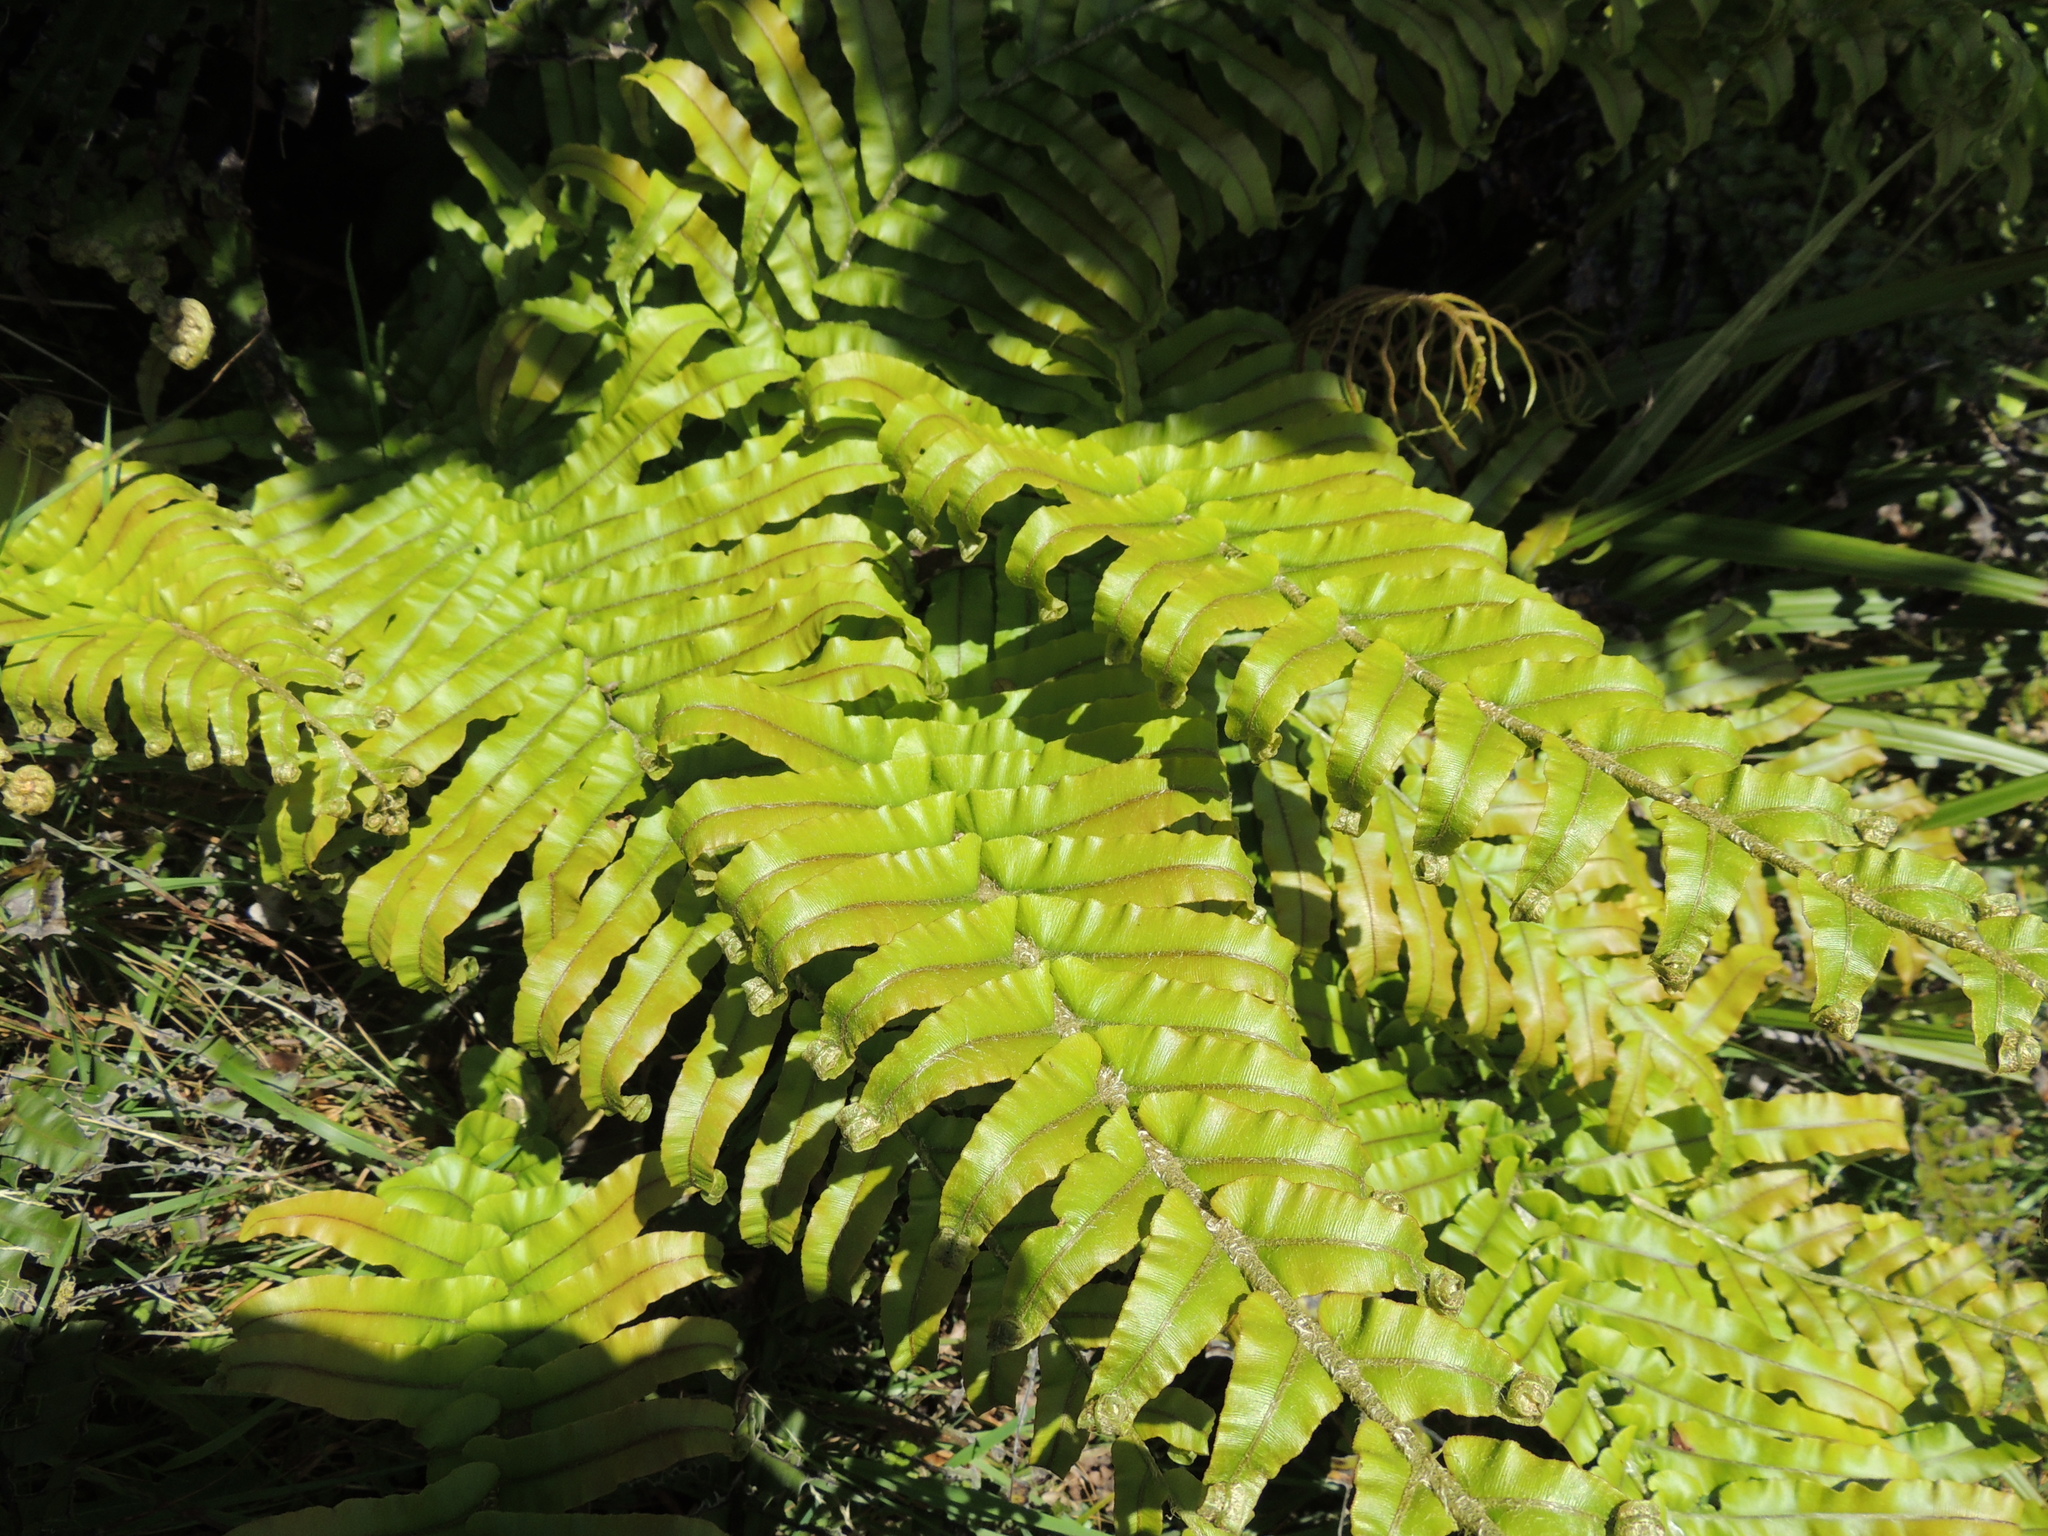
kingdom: Plantae
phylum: Tracheophyta
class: Polypodiopsida
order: Polypodiales
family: Blechnaceae
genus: Parablechnum
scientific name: Parablechnum novae-zelandiae
